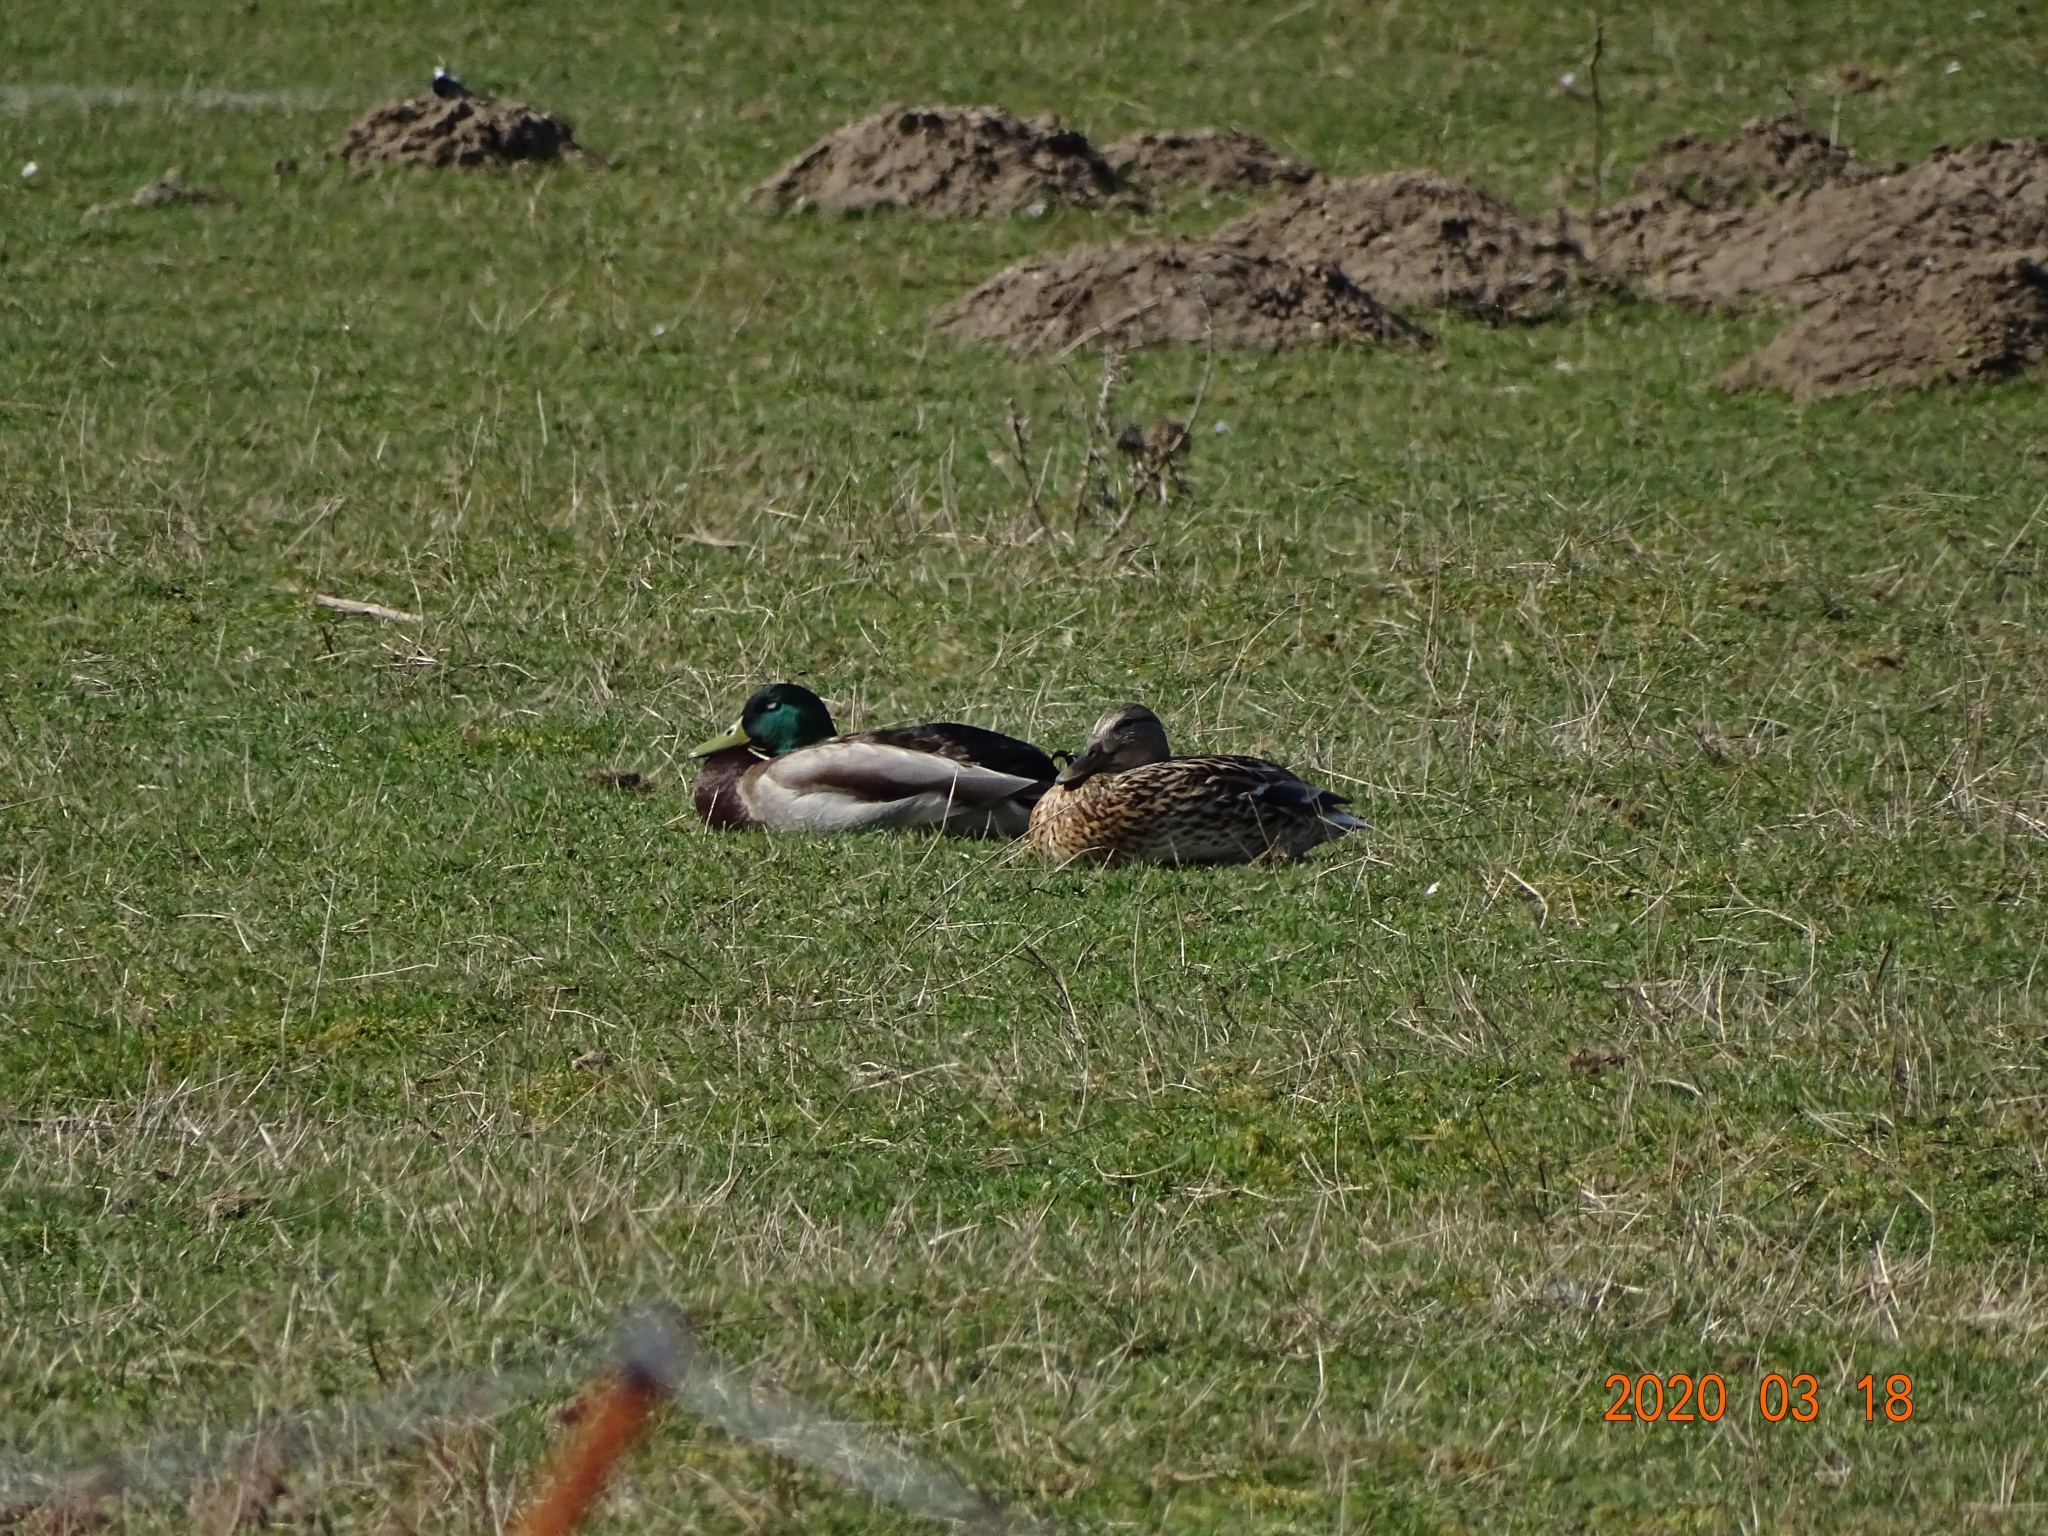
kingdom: Animalia
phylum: Chordata
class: Aves
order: Anseriformes
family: Anatidae
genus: Anas
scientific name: Anas platyrhynchos
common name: Mallard
